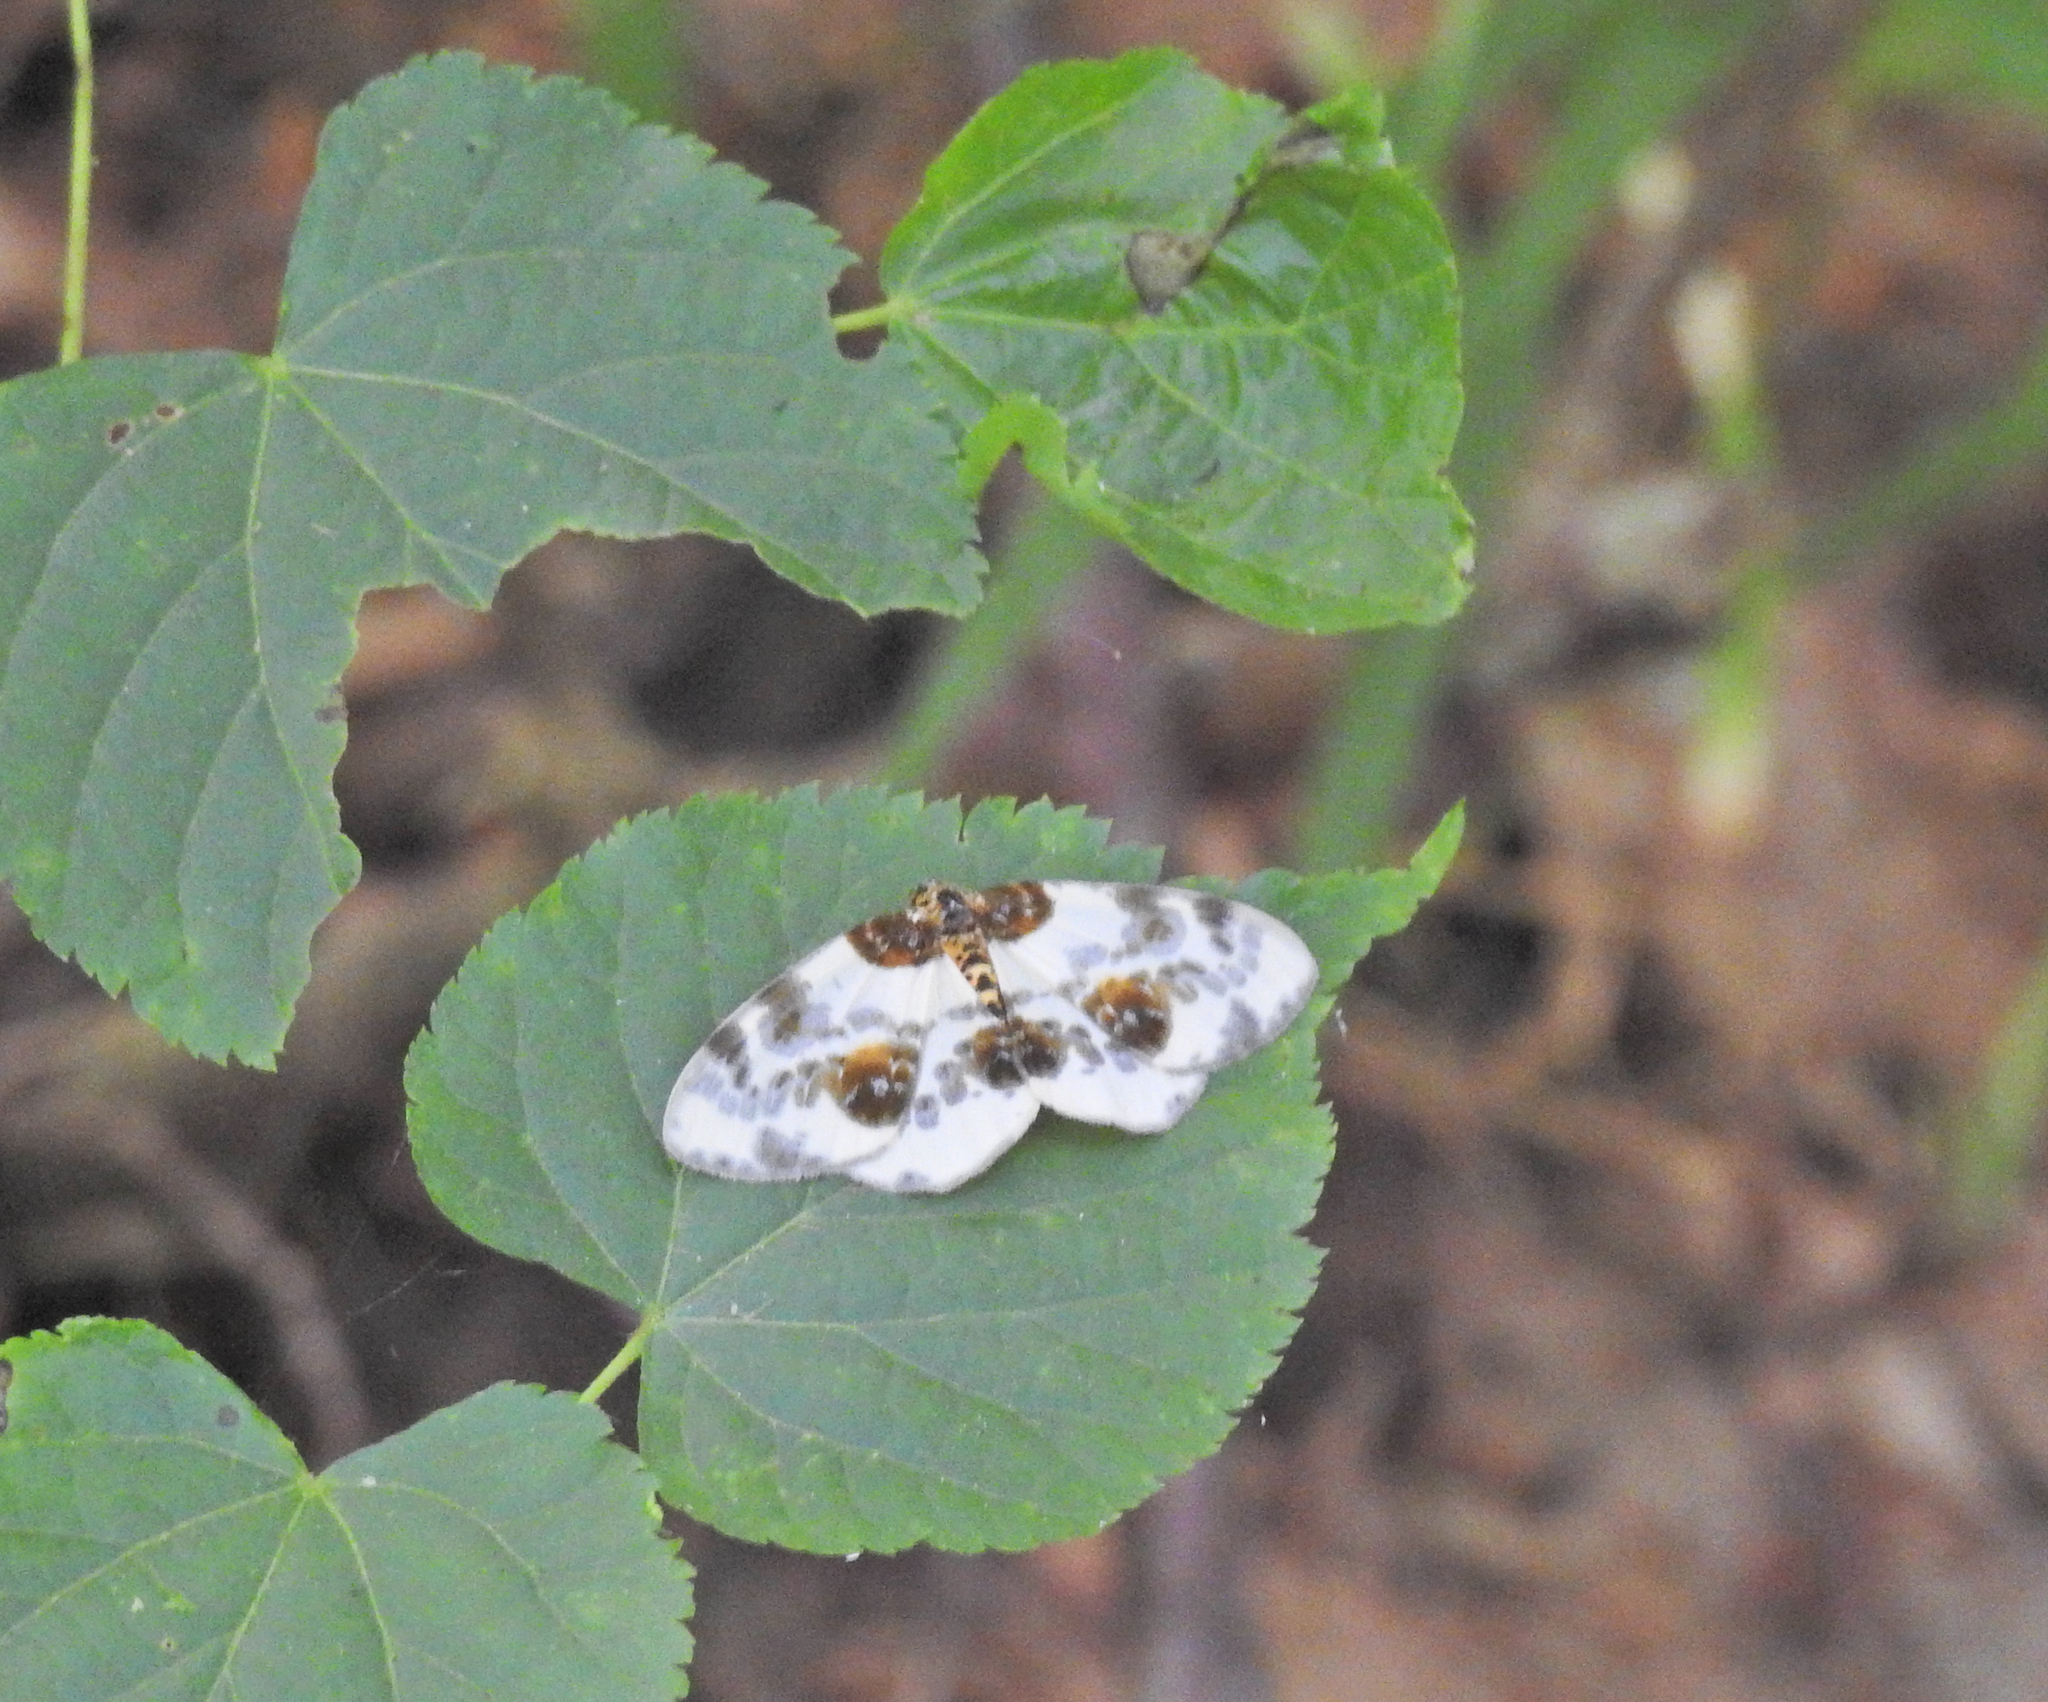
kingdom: Animalia
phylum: Arthropoda
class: Insecta
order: Lepidoptera
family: Geometridae
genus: Abraxas
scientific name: Abraxas sylvata
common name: Clouded magpie
